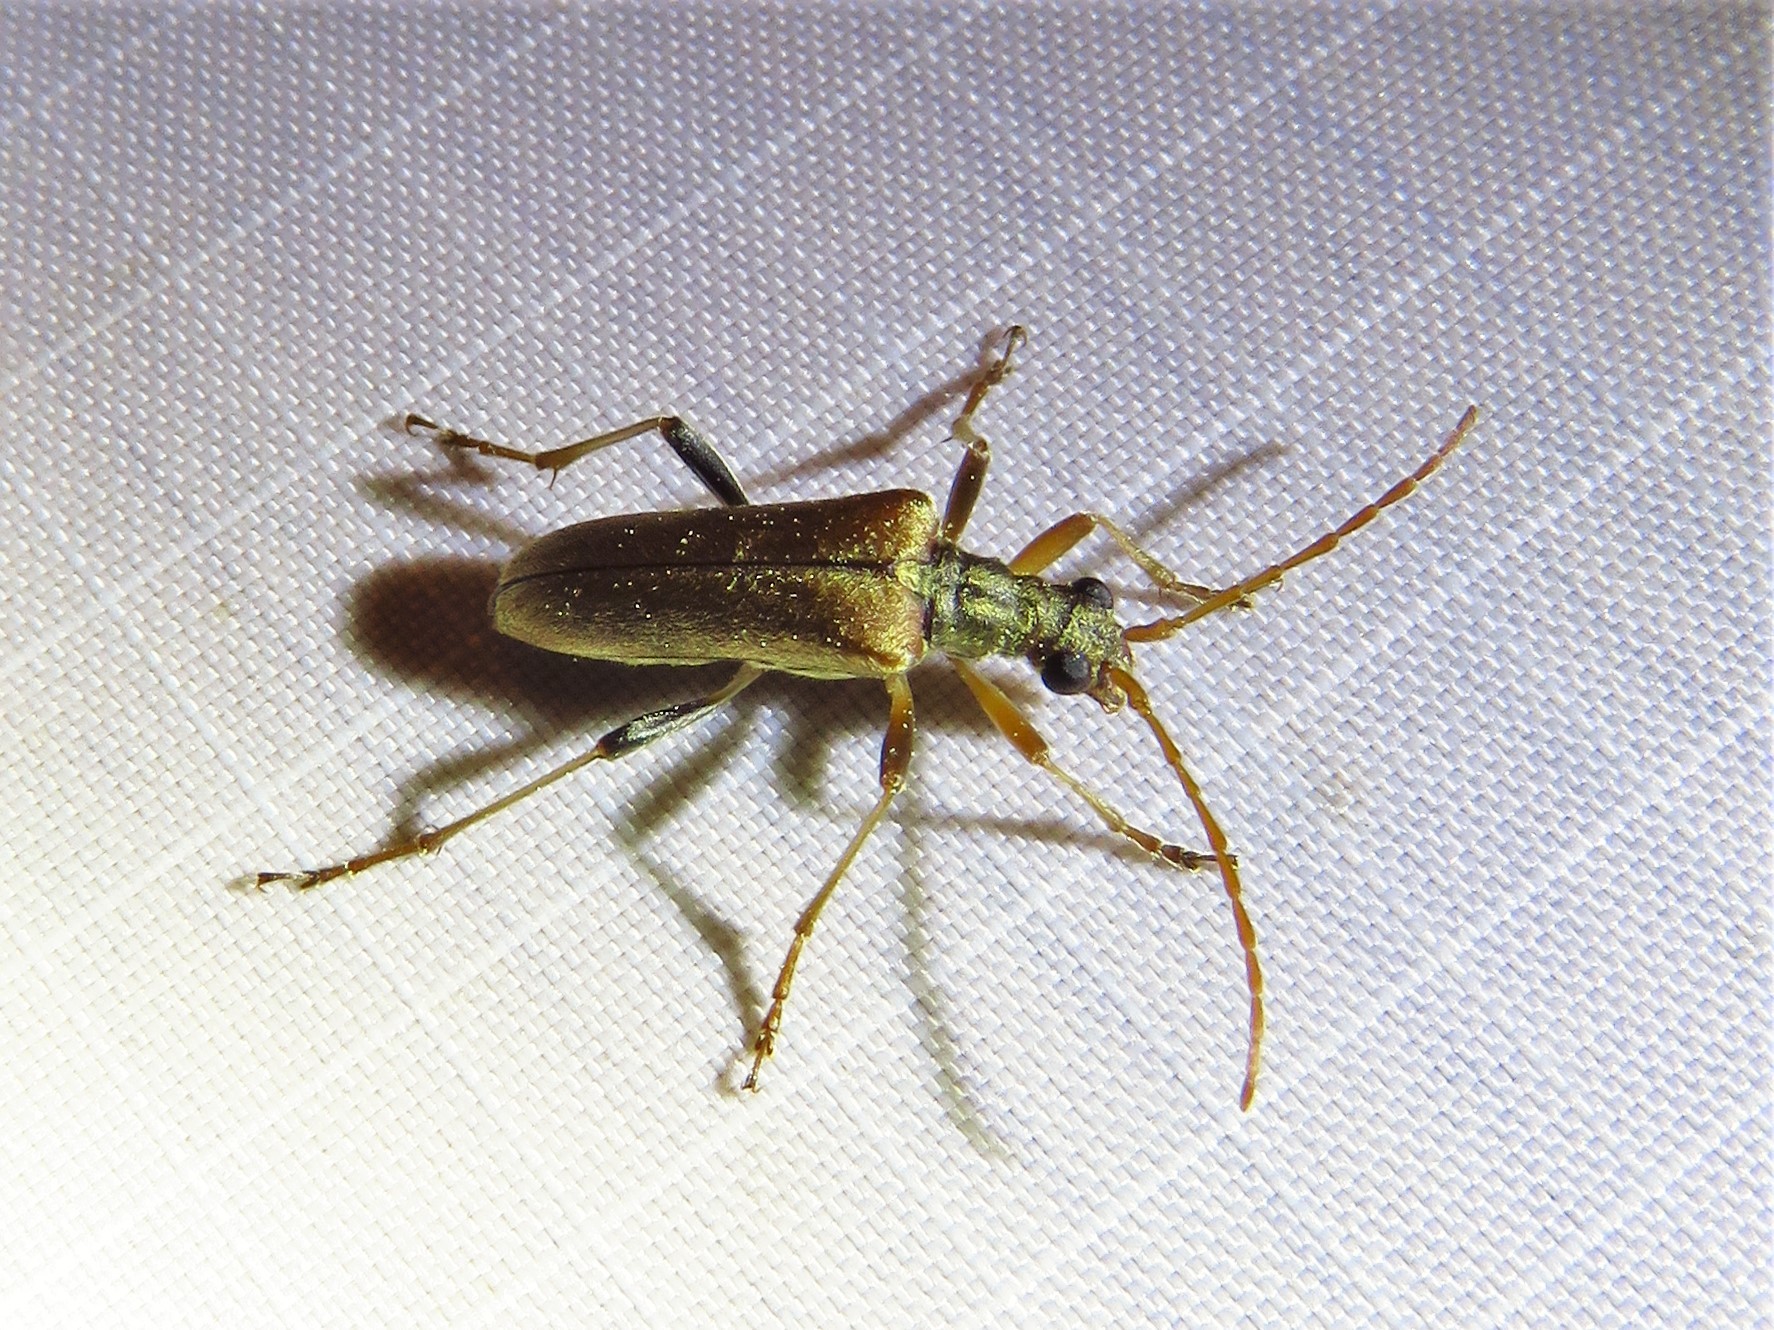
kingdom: Animalia
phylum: Arthropoda
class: Insecta
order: Coleoptera
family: Cerambycidae
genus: Stenocorus
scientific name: Stenocorus cinnamopterus
